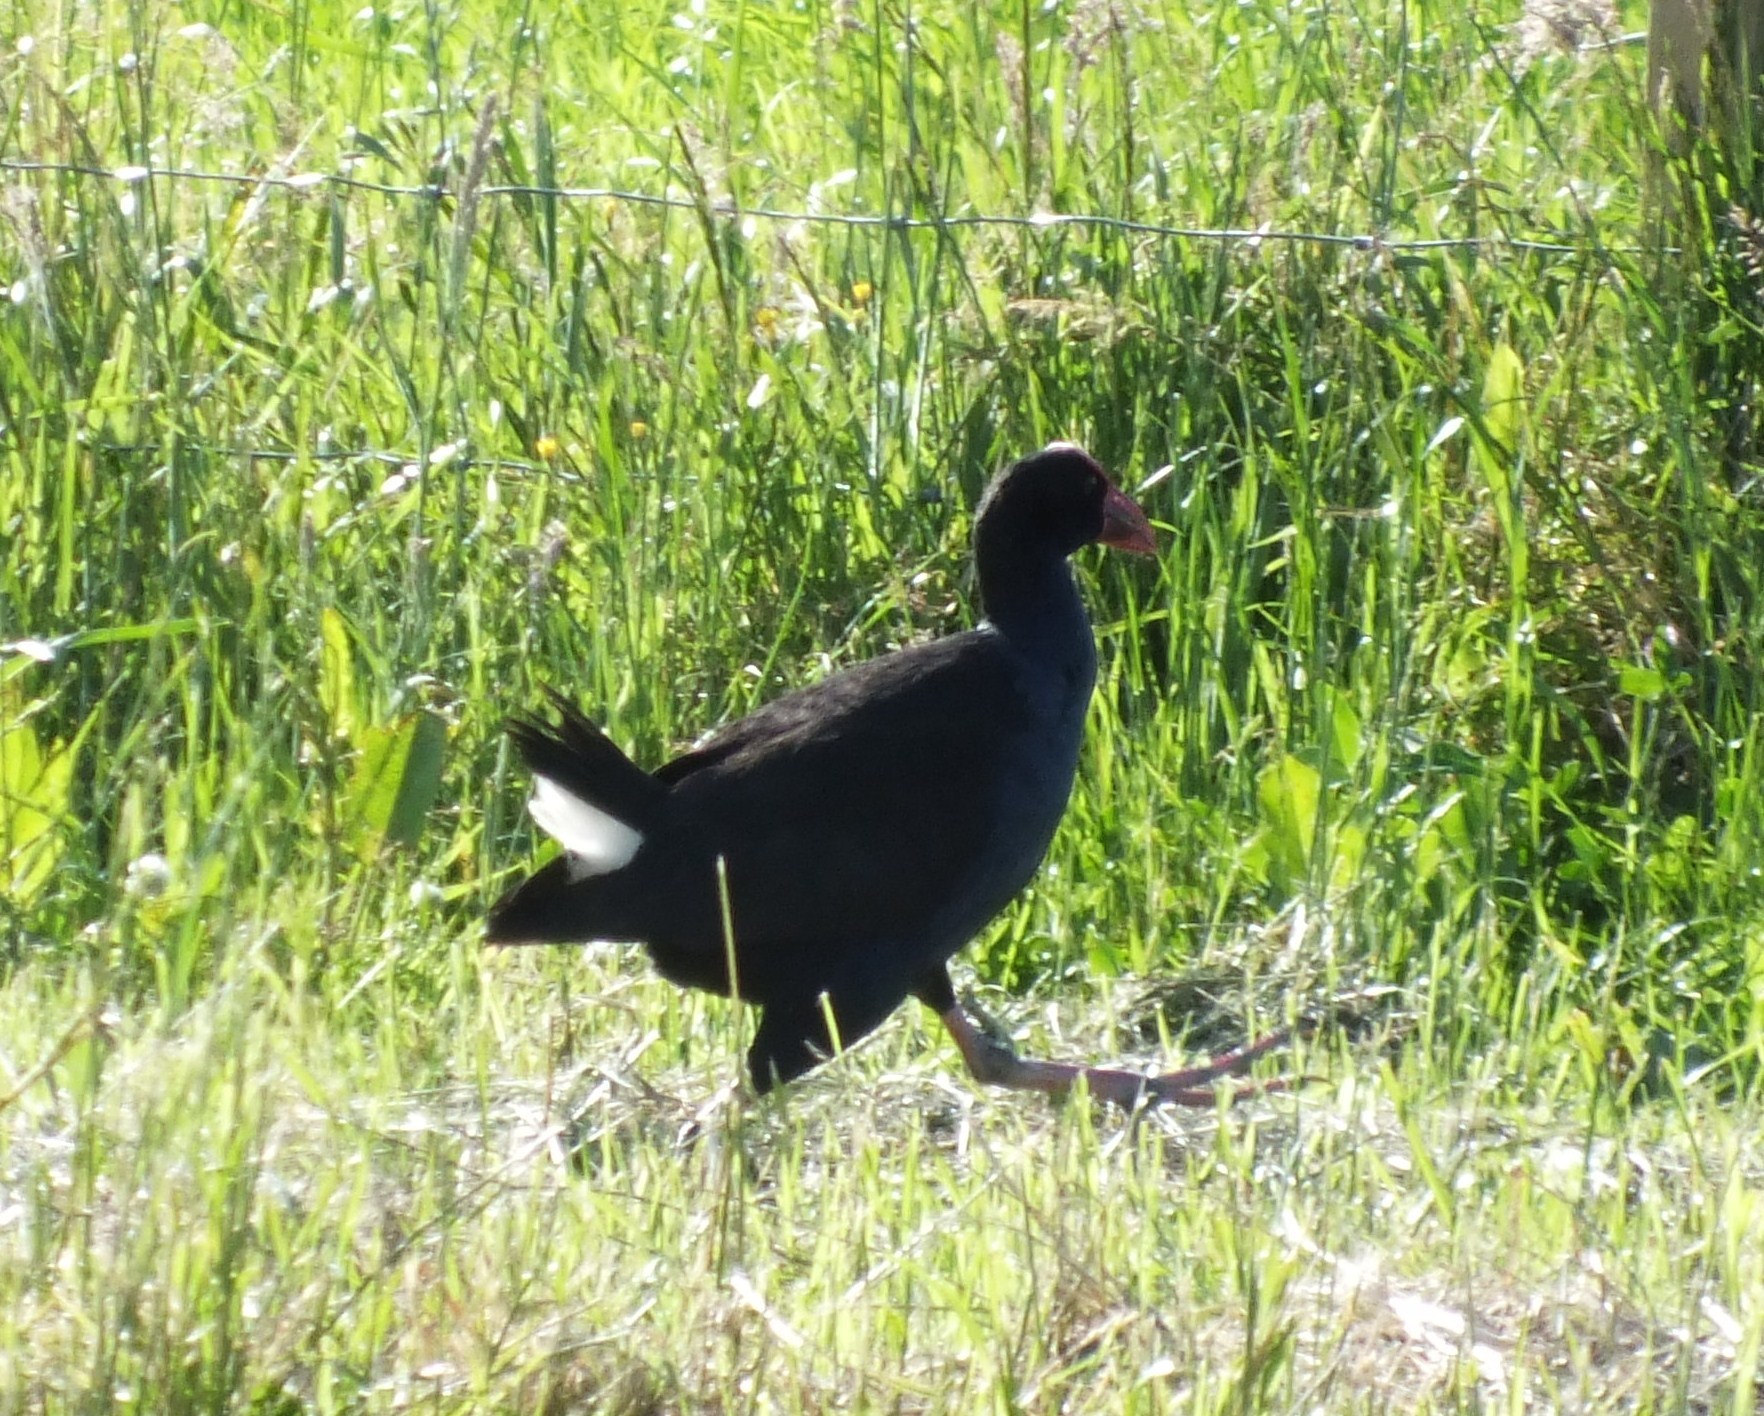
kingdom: Animalia
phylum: Chordata
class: Aves
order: Gruiformes
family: Rallidae
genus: Porphyrio
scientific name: Porphyrio melanotus
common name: Australasian swamphen
